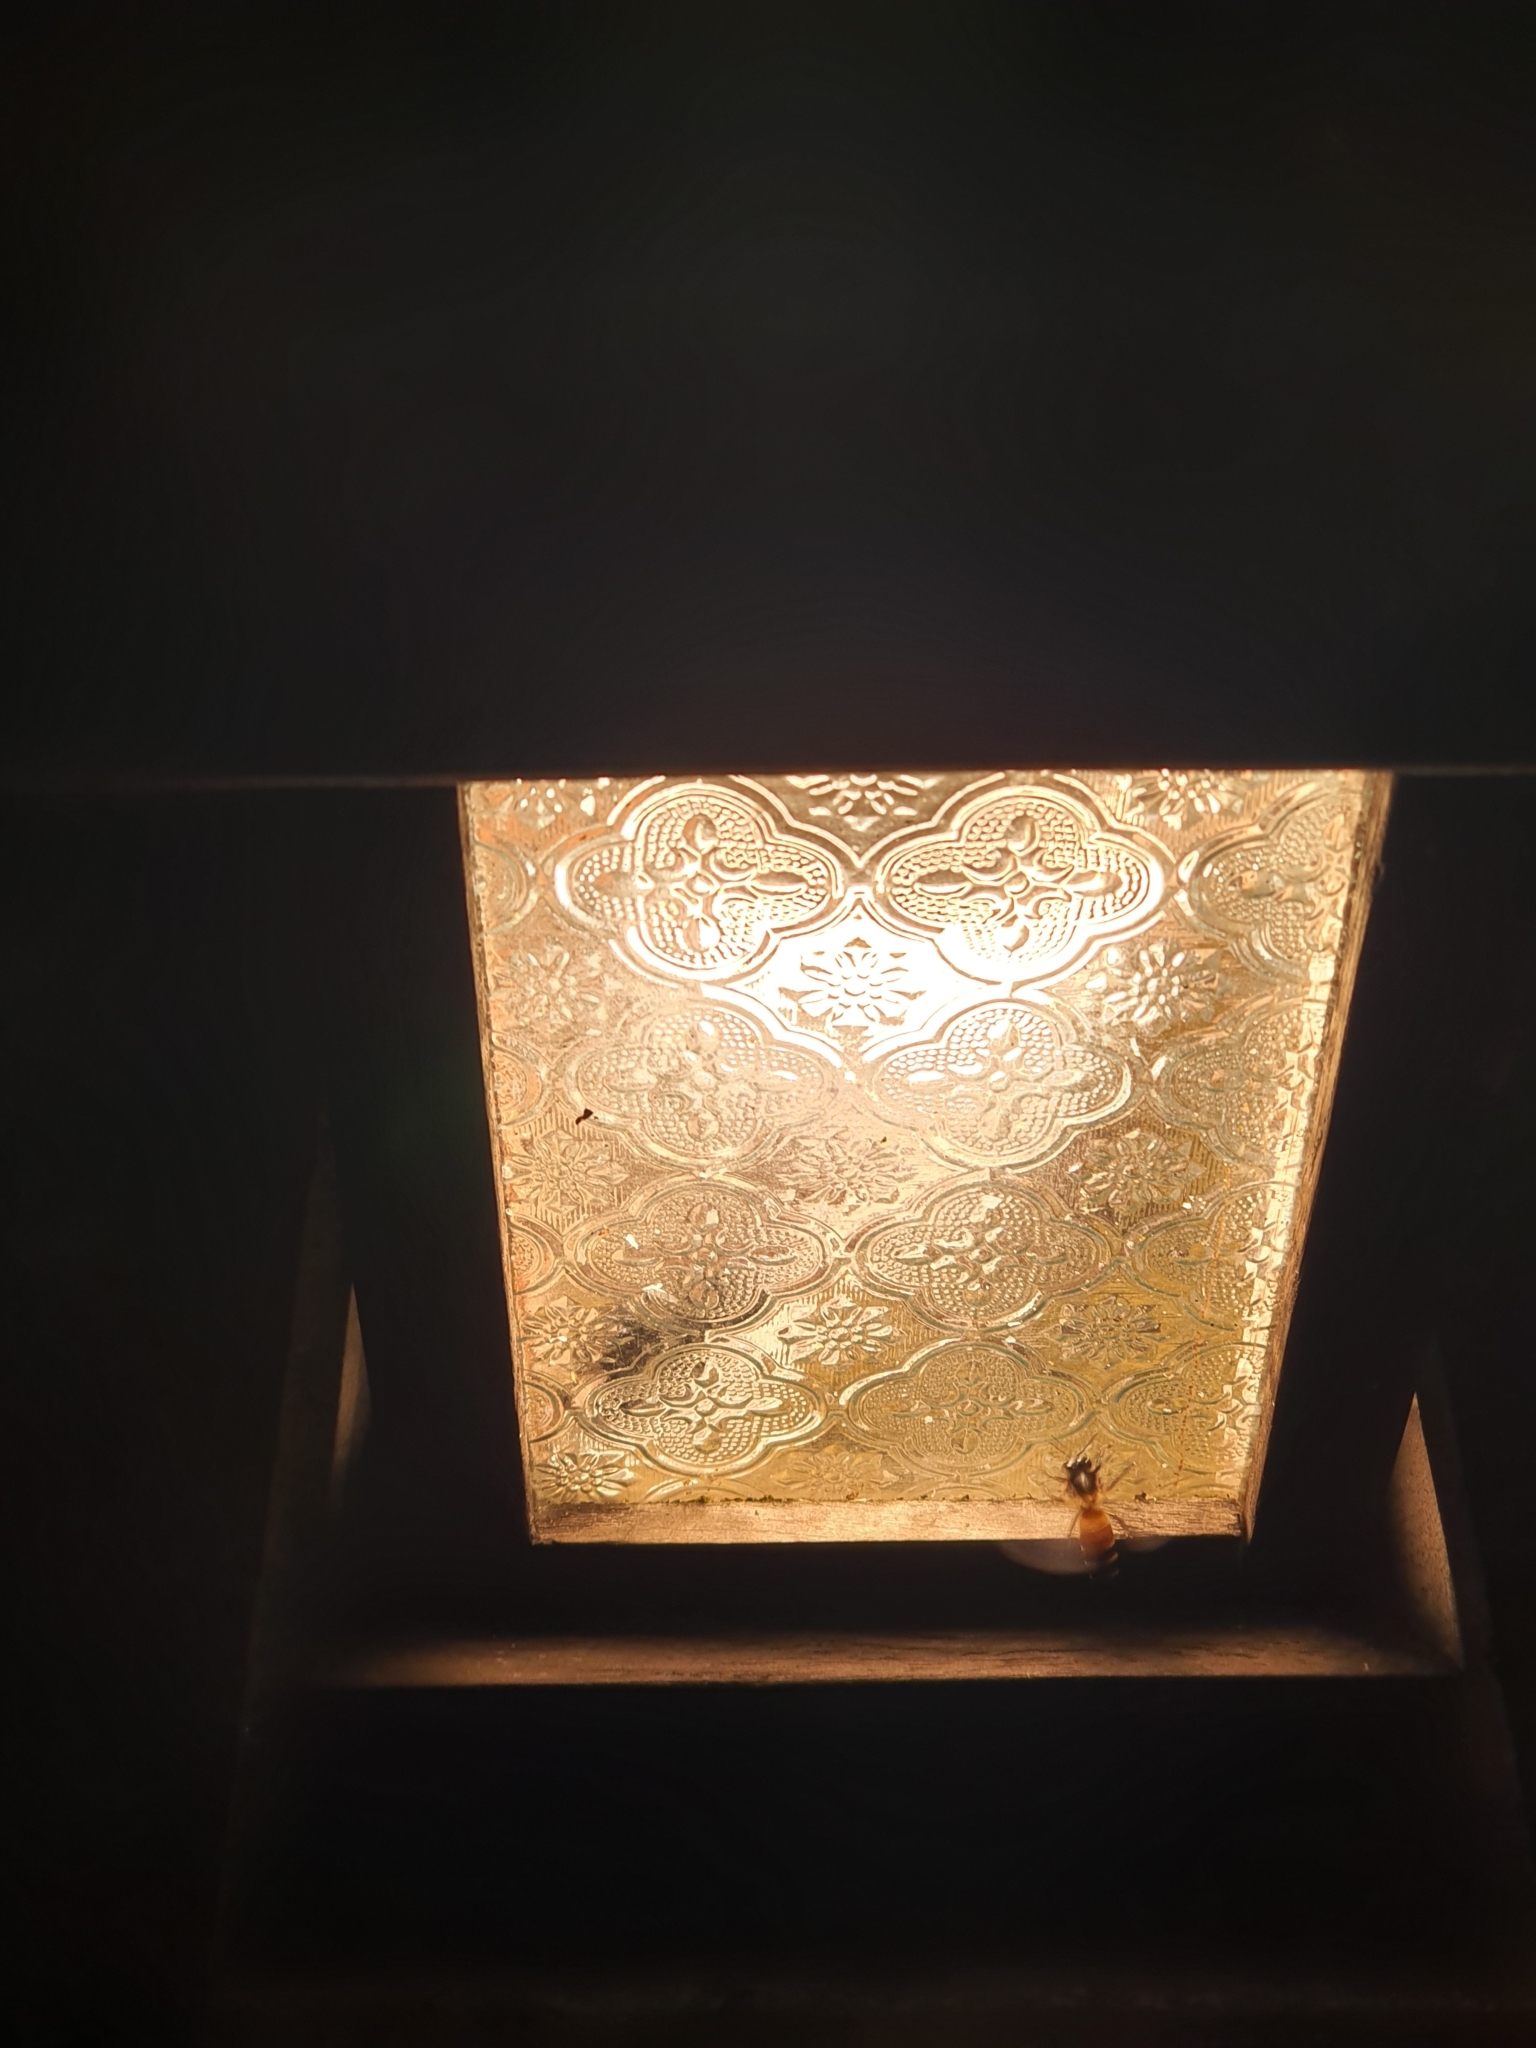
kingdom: Animalia
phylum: Arthropoda
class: Insecta
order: Hymenoptera
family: Apidae
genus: Apis
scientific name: Apis dorsata
